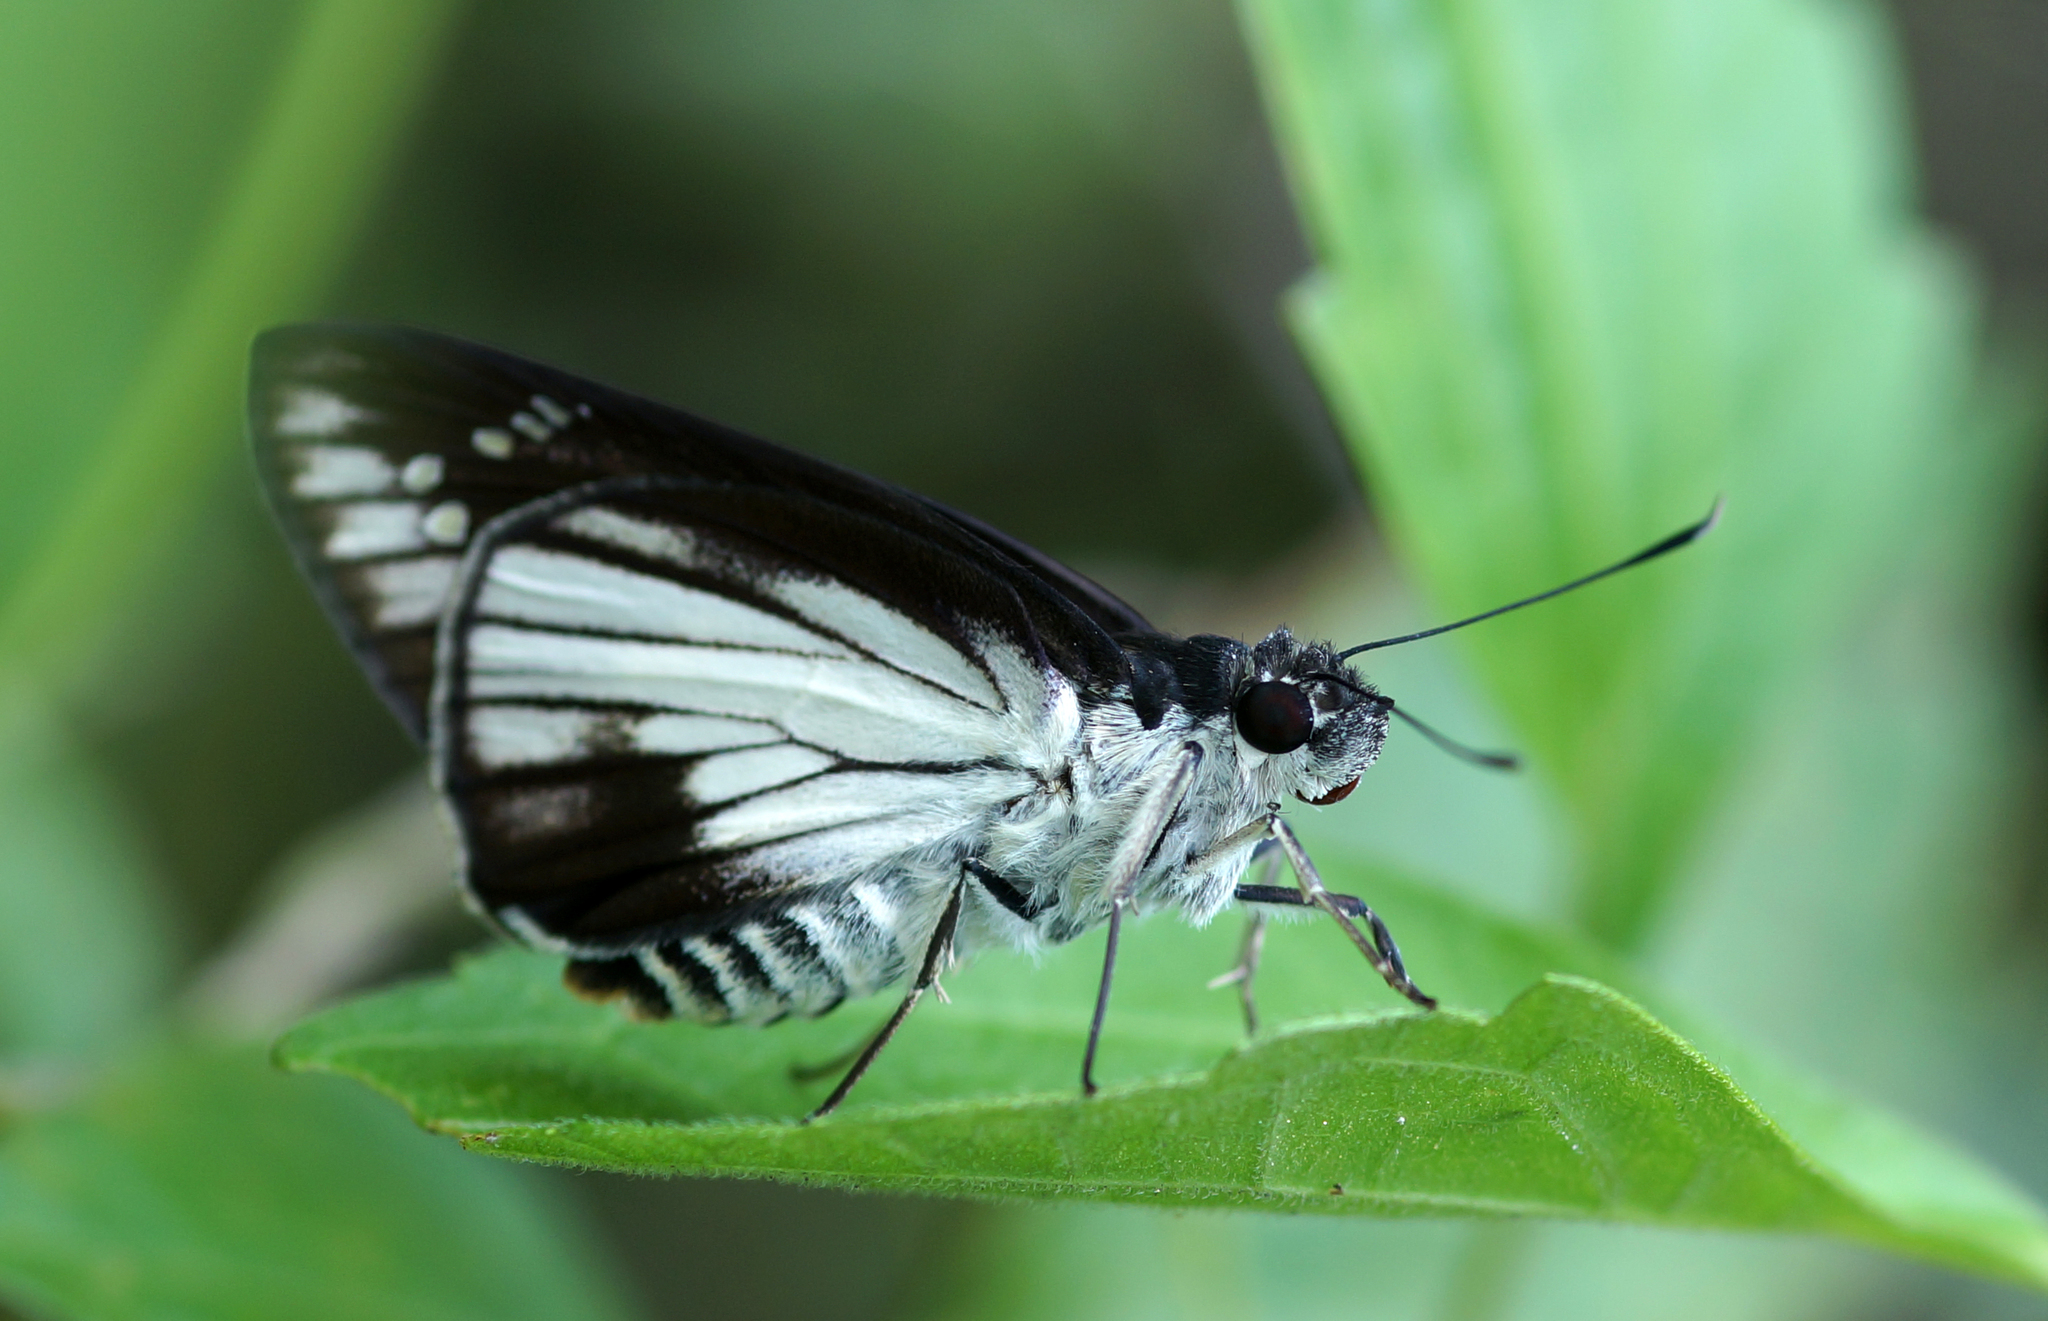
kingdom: Animalia
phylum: Arthropoda
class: Insecta
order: Lepidoptera
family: Hesperiidae
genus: Unkana
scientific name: Unkana ambasa
